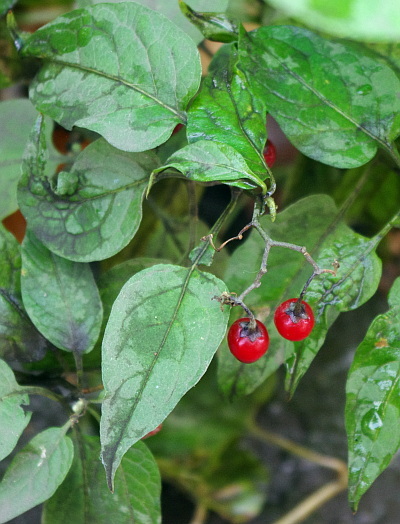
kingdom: Plantae
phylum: Tracheophyta
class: Magnoliopsida
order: Solanales
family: Solanaceae
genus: Solanum
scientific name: Solanum dulcamara
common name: Climbing nightshade
